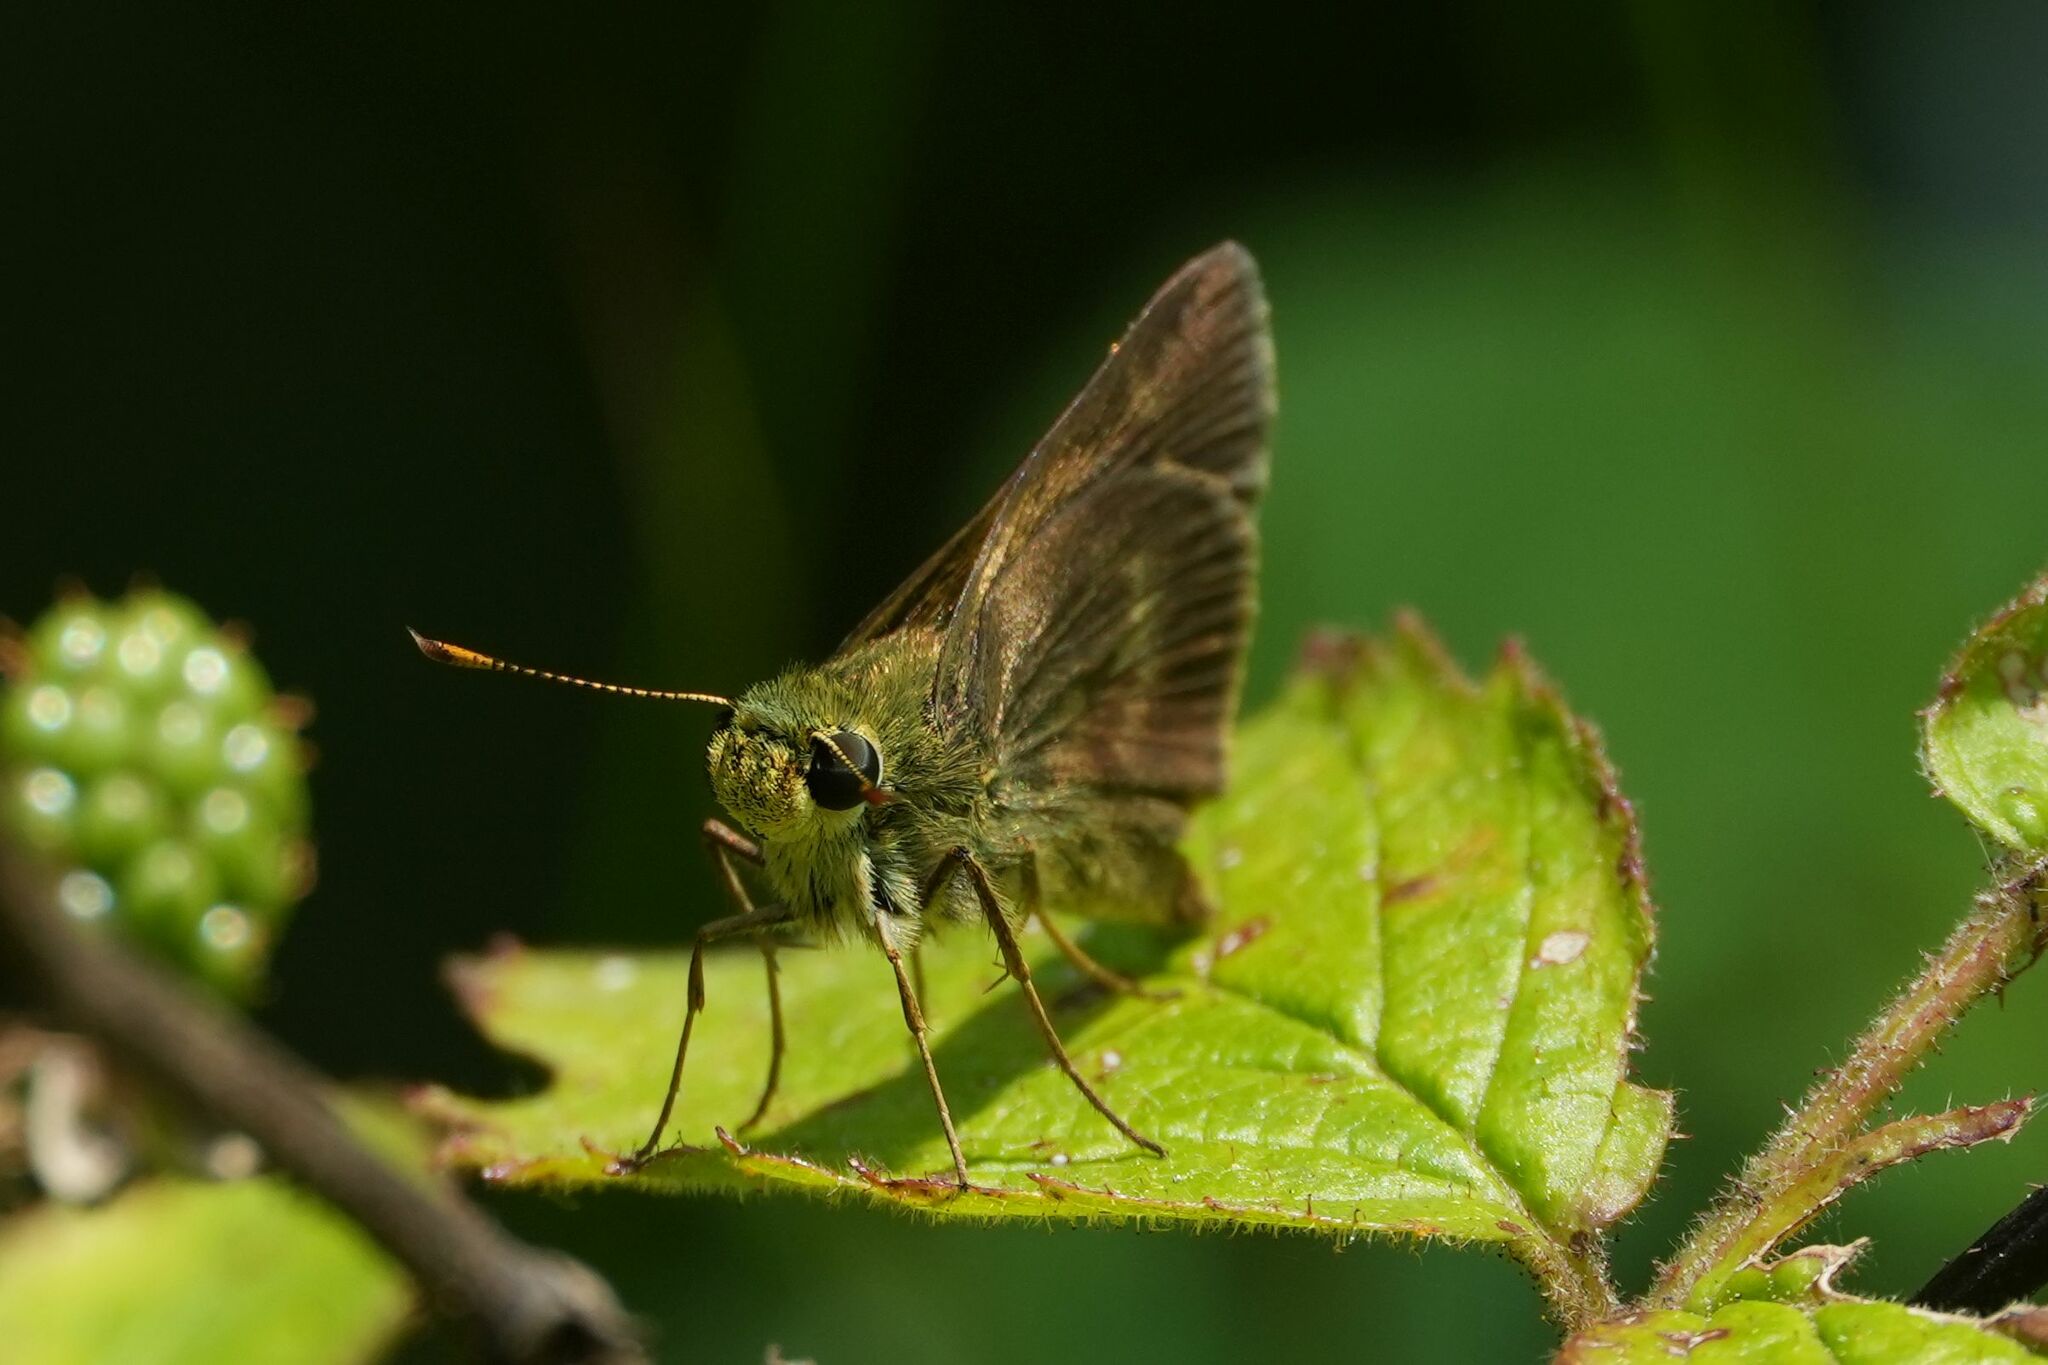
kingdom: Animalia
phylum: Arthropoda
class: Insecta
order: Lepidoptera
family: Hesperiidae
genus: Polites
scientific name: Polites egeremet
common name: Northern broken-dash
